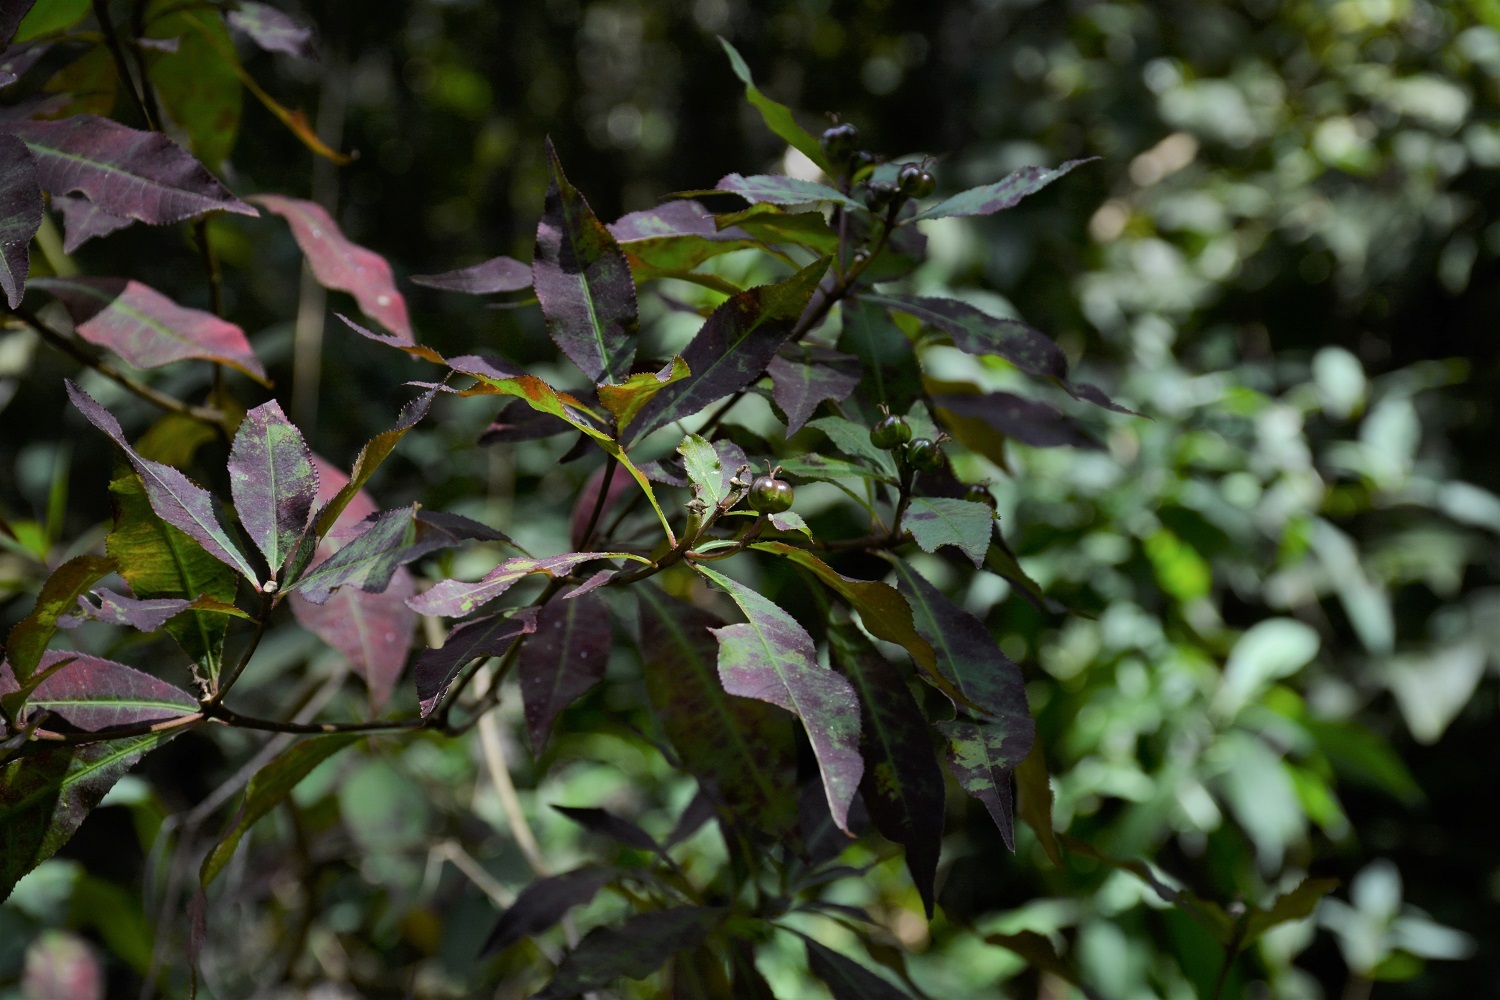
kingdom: Plantae
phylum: Tracheophyta
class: Magnoliopsida
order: Malpighiales
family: Euphorbiaceae
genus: Stillingia
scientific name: Stillingia acutifolia
